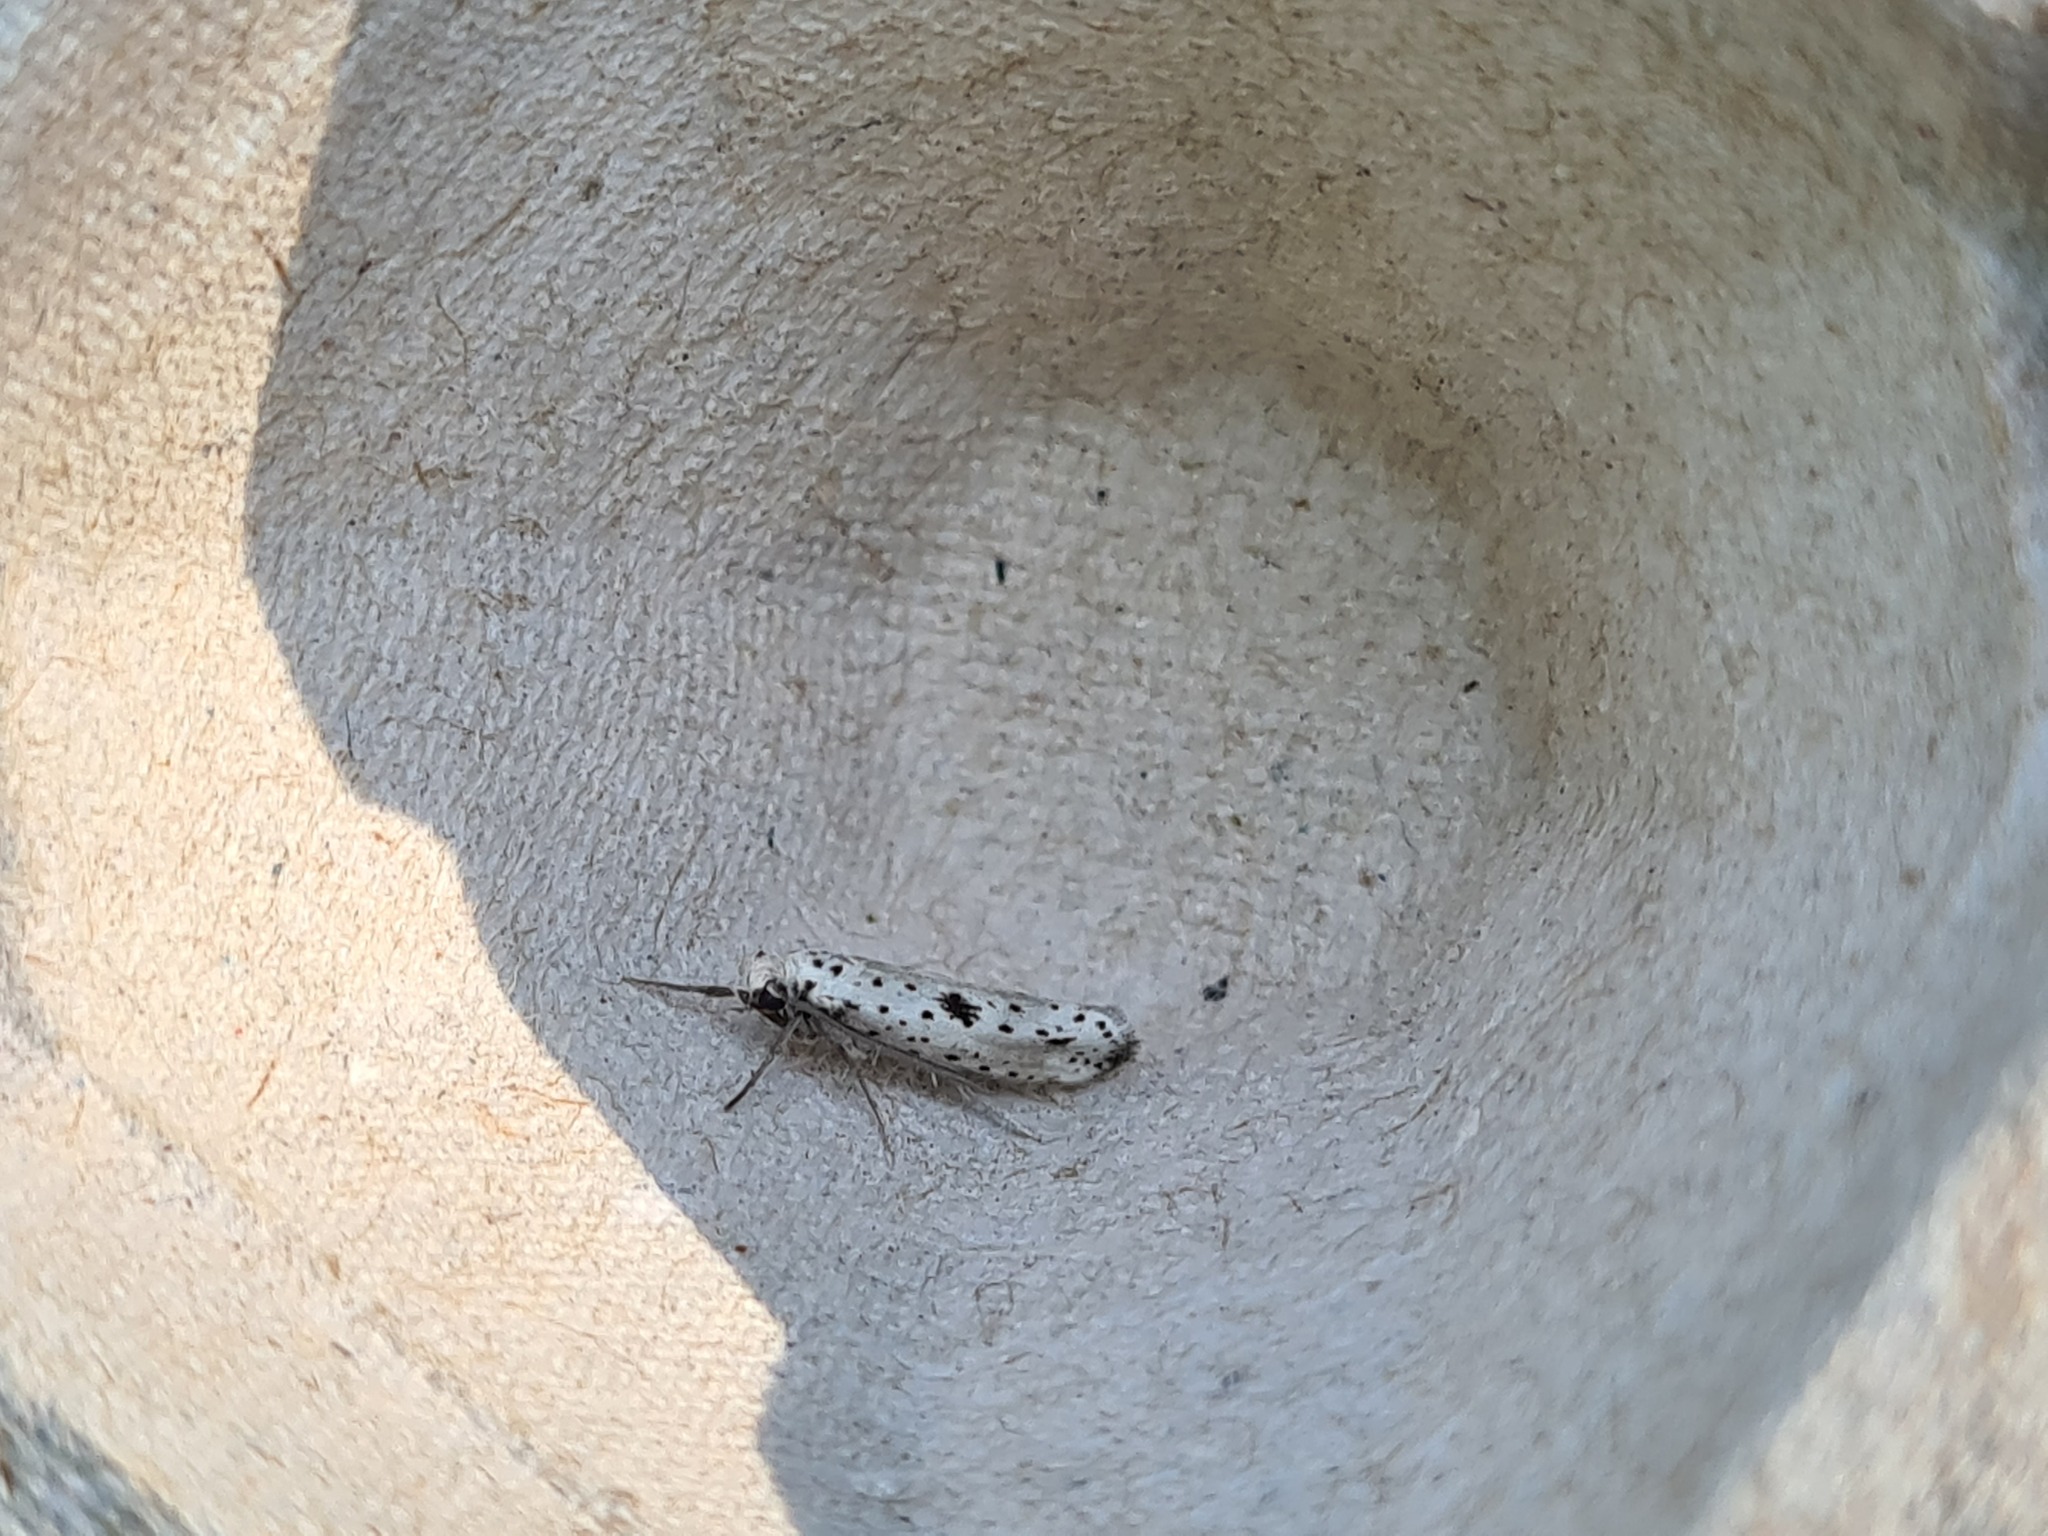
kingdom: Animalia
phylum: Arthropoda
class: Insecta
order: Lepidoptera
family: Yponomeutidae
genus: Yponomeuta
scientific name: Yponomeuta plumbella
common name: Black-tipped ermine
